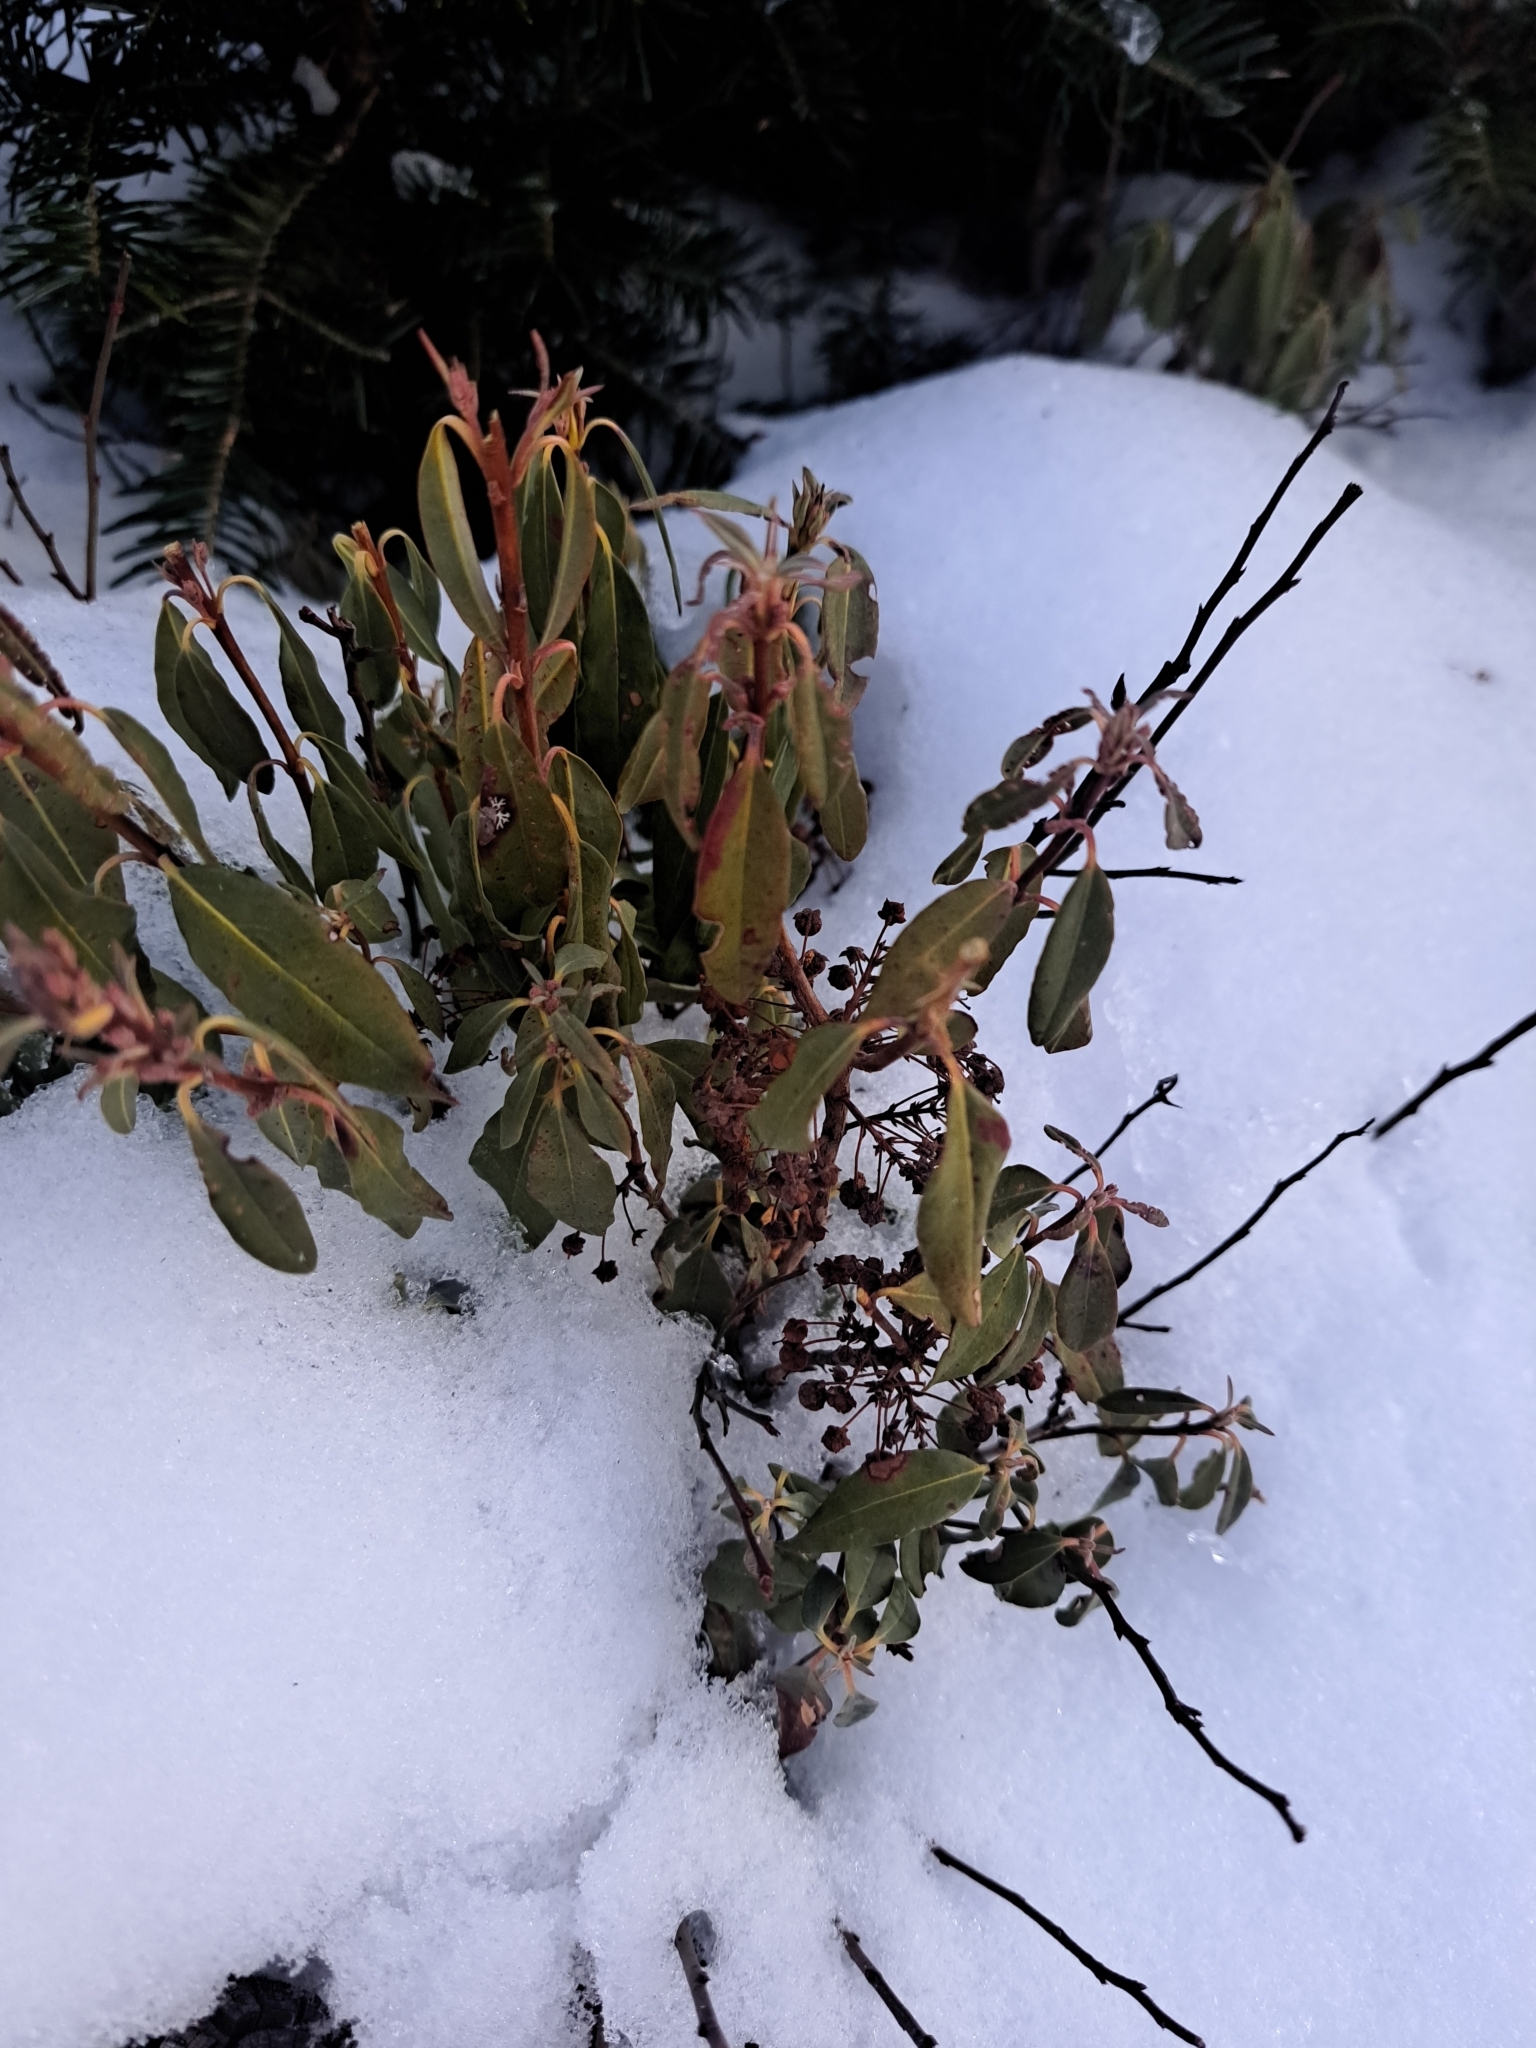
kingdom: Plantae
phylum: Tracheophyta
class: Magnoliopsida
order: Ericales
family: Ericaceae
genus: Kalmia
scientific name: Kalmia angustifolia
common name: Sheep-laurel
